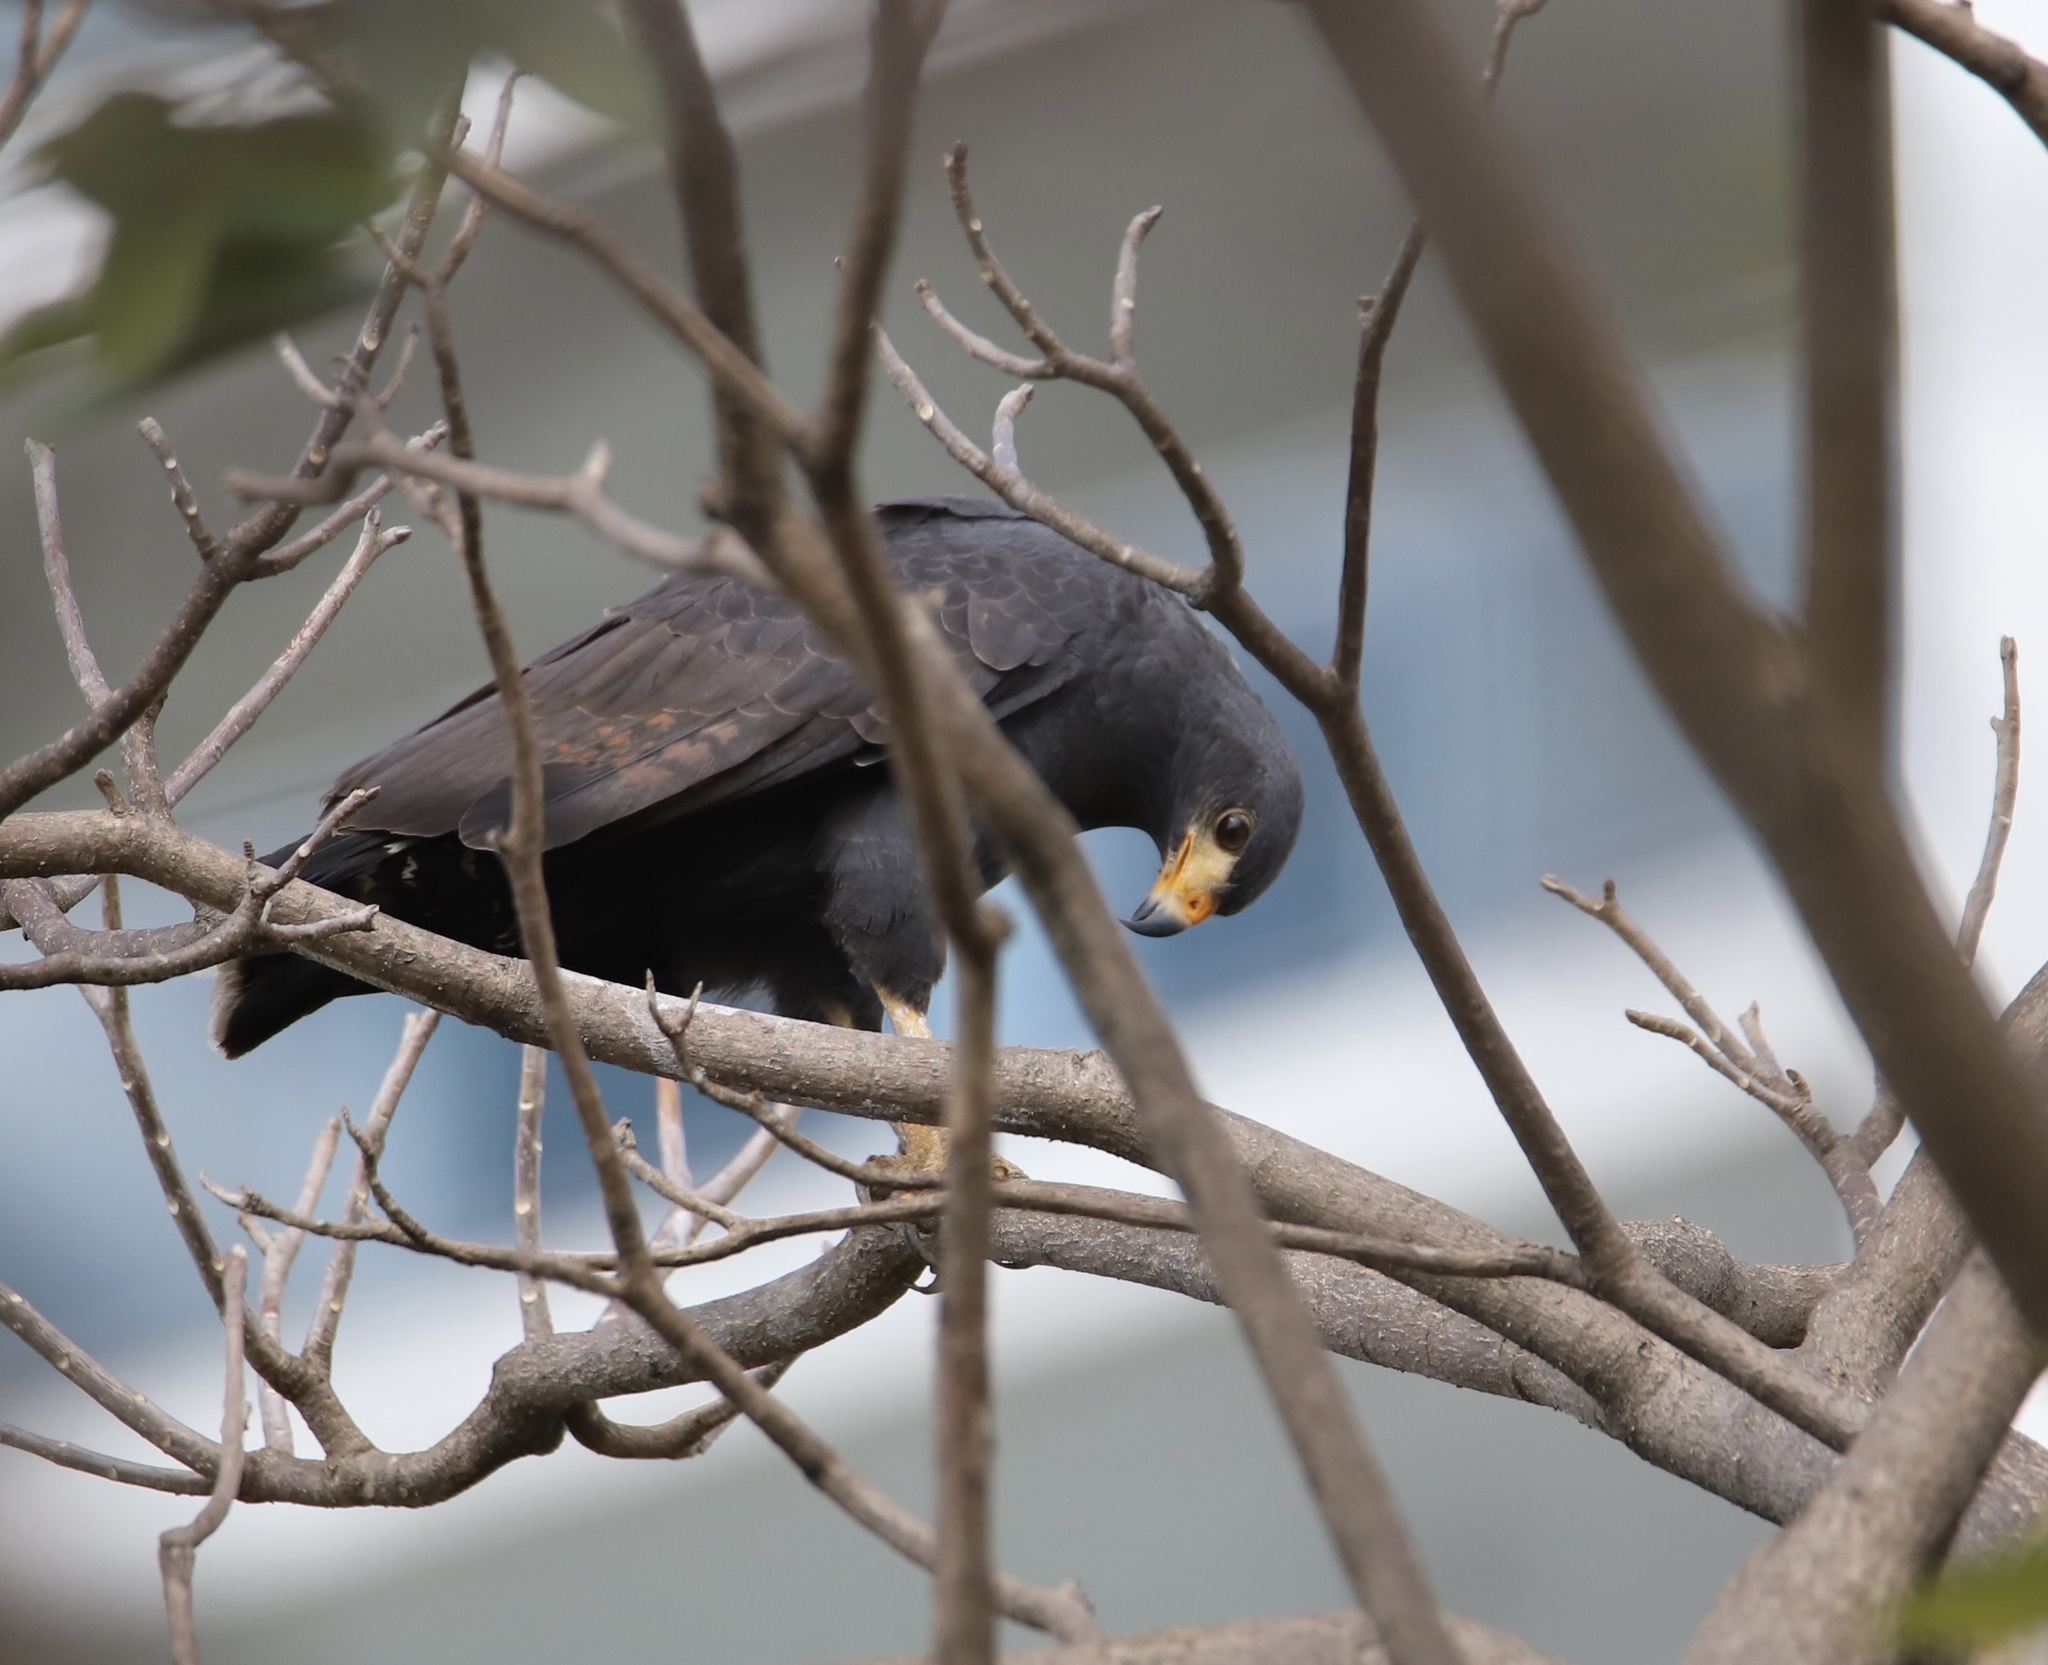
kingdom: Animalia
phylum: Chordata
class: Aves
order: Accipitriformes
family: Accipitridae
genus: Buteogallus
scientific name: Buteogallus anthracinus
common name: Common black hawk
